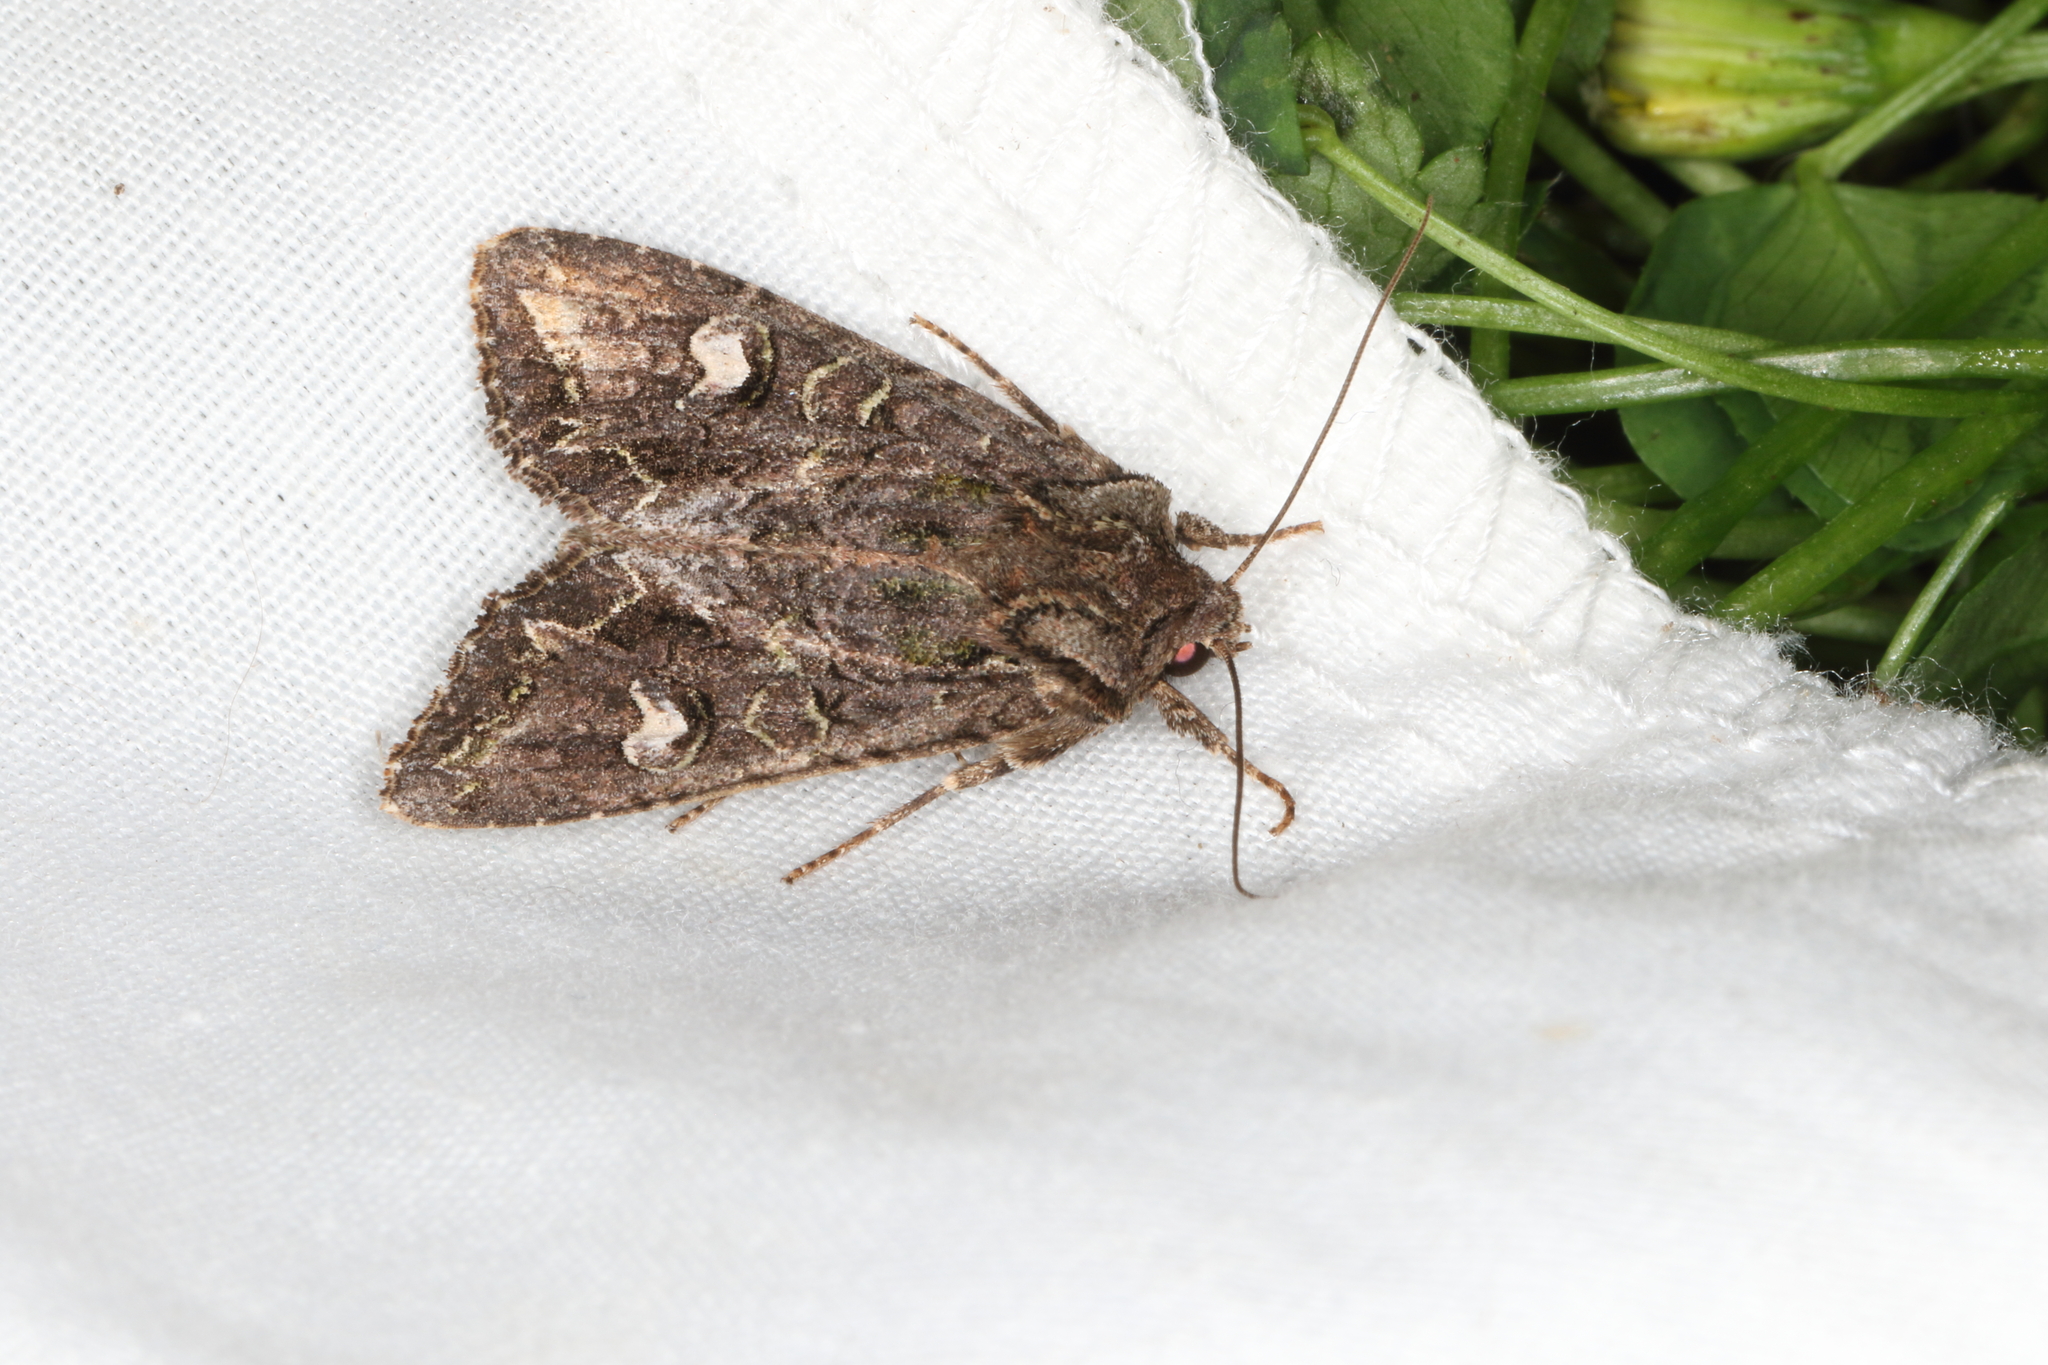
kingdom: Animalia
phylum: Arthropoda
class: Insecta
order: Lepidoptera
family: Noctuidae
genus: Ichneutica
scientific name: Ichneutica insignis
